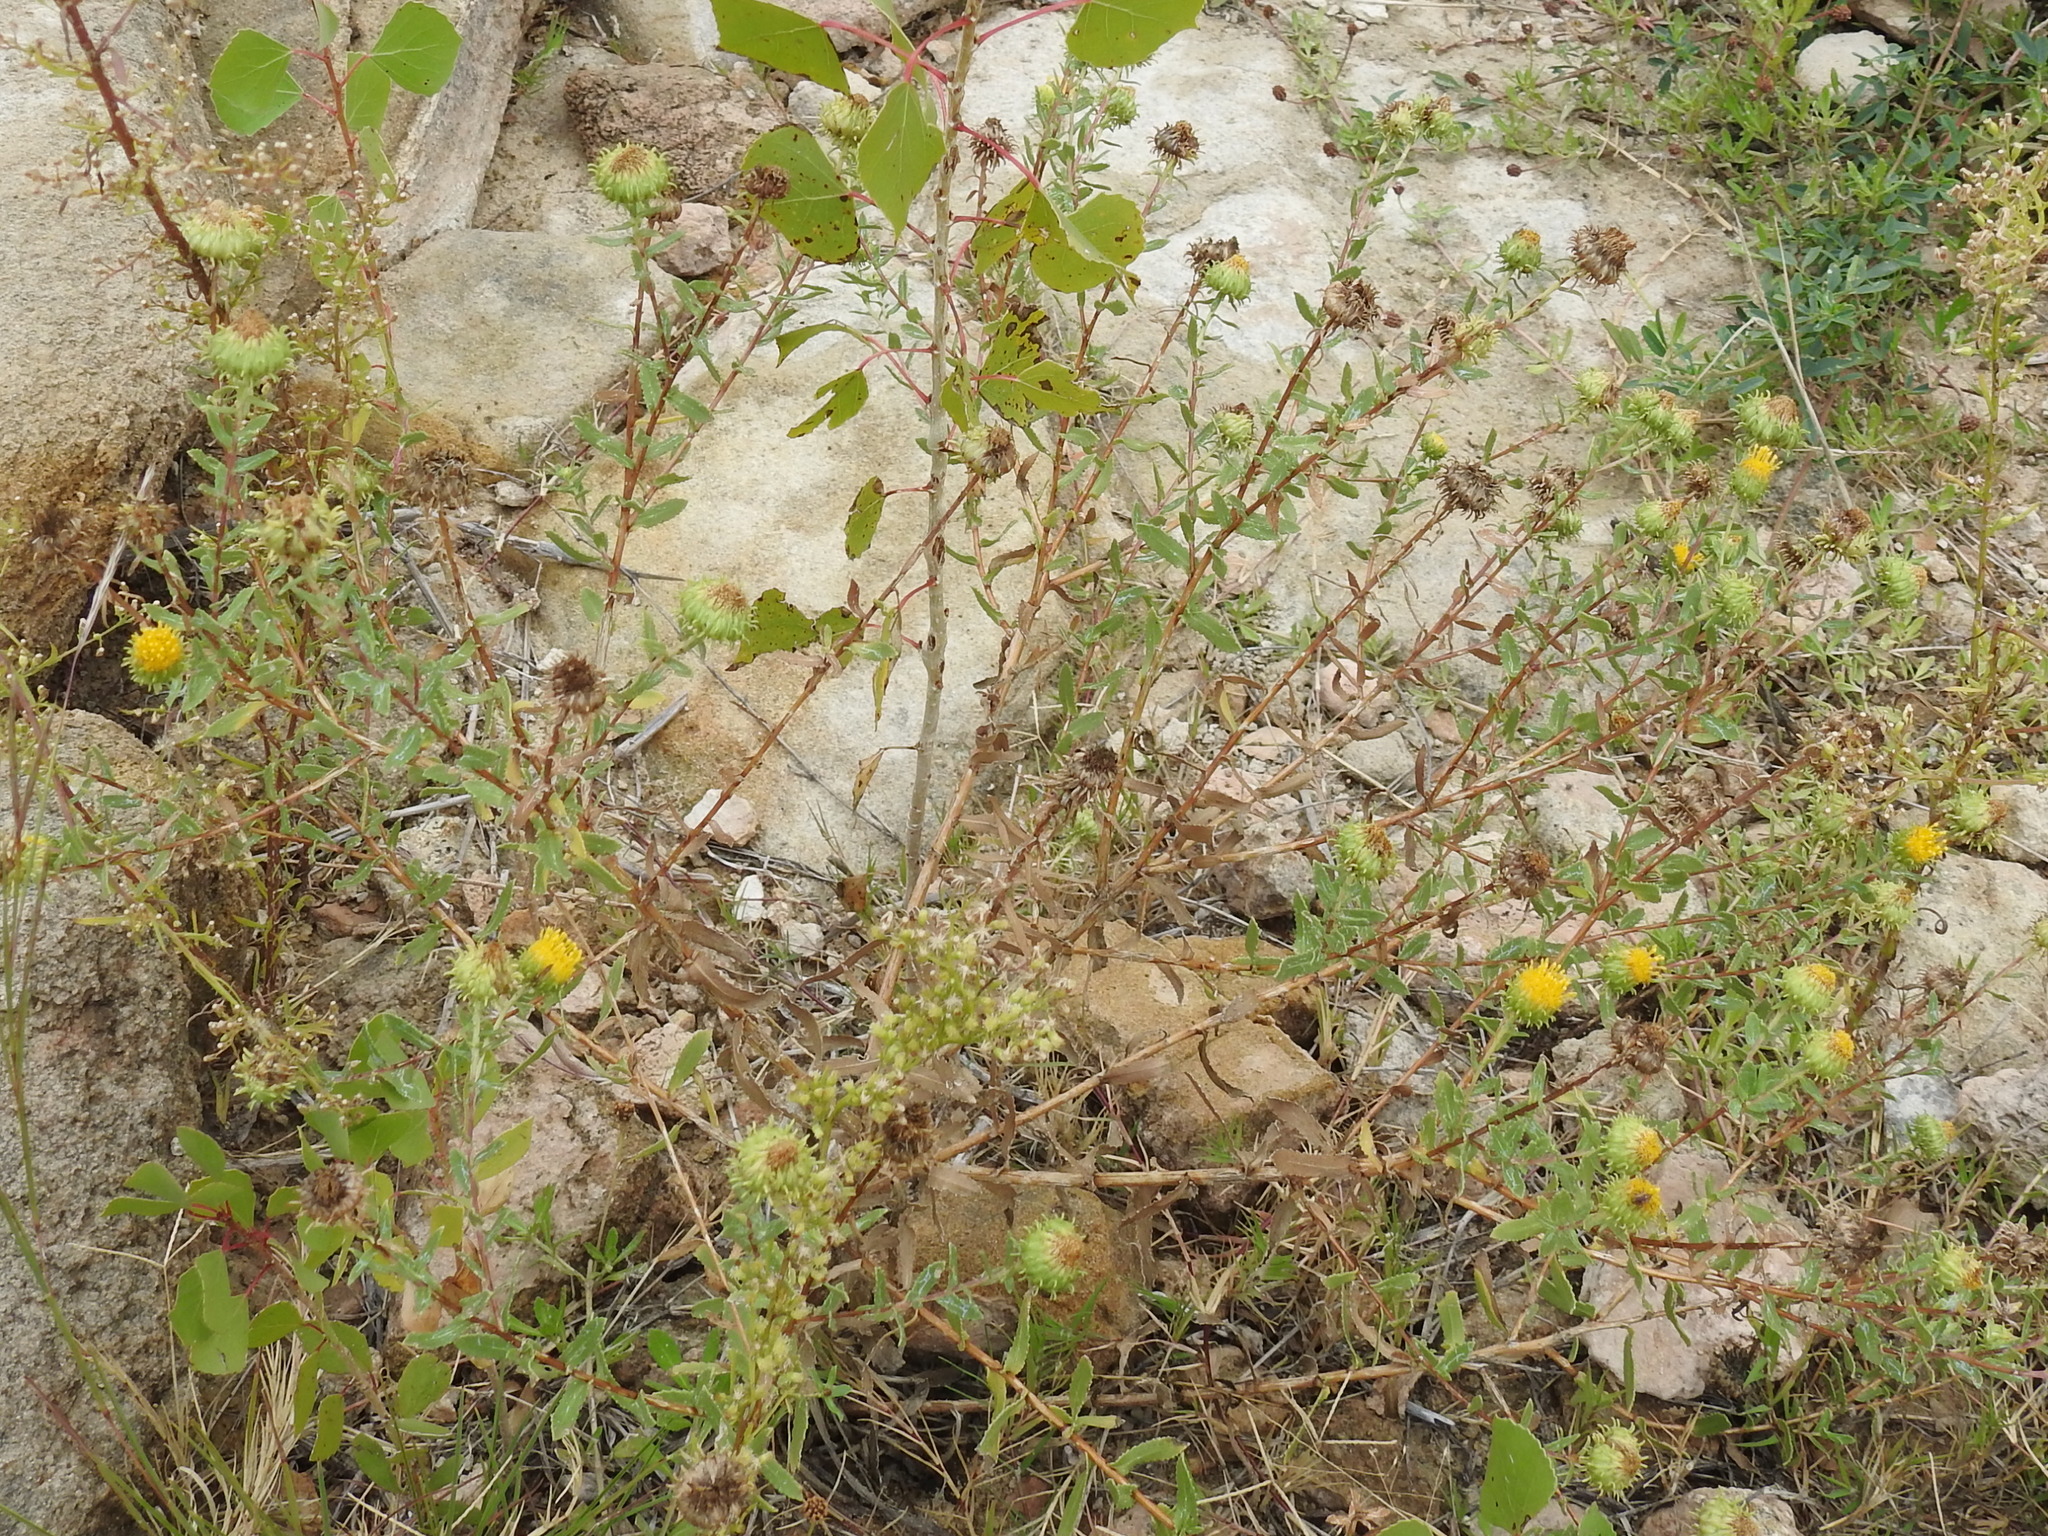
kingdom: Plantae
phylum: Tracheophyta
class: Magnoliopsida
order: Asterales
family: Asteraceae
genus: Grindelia
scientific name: Grindelia nuda
